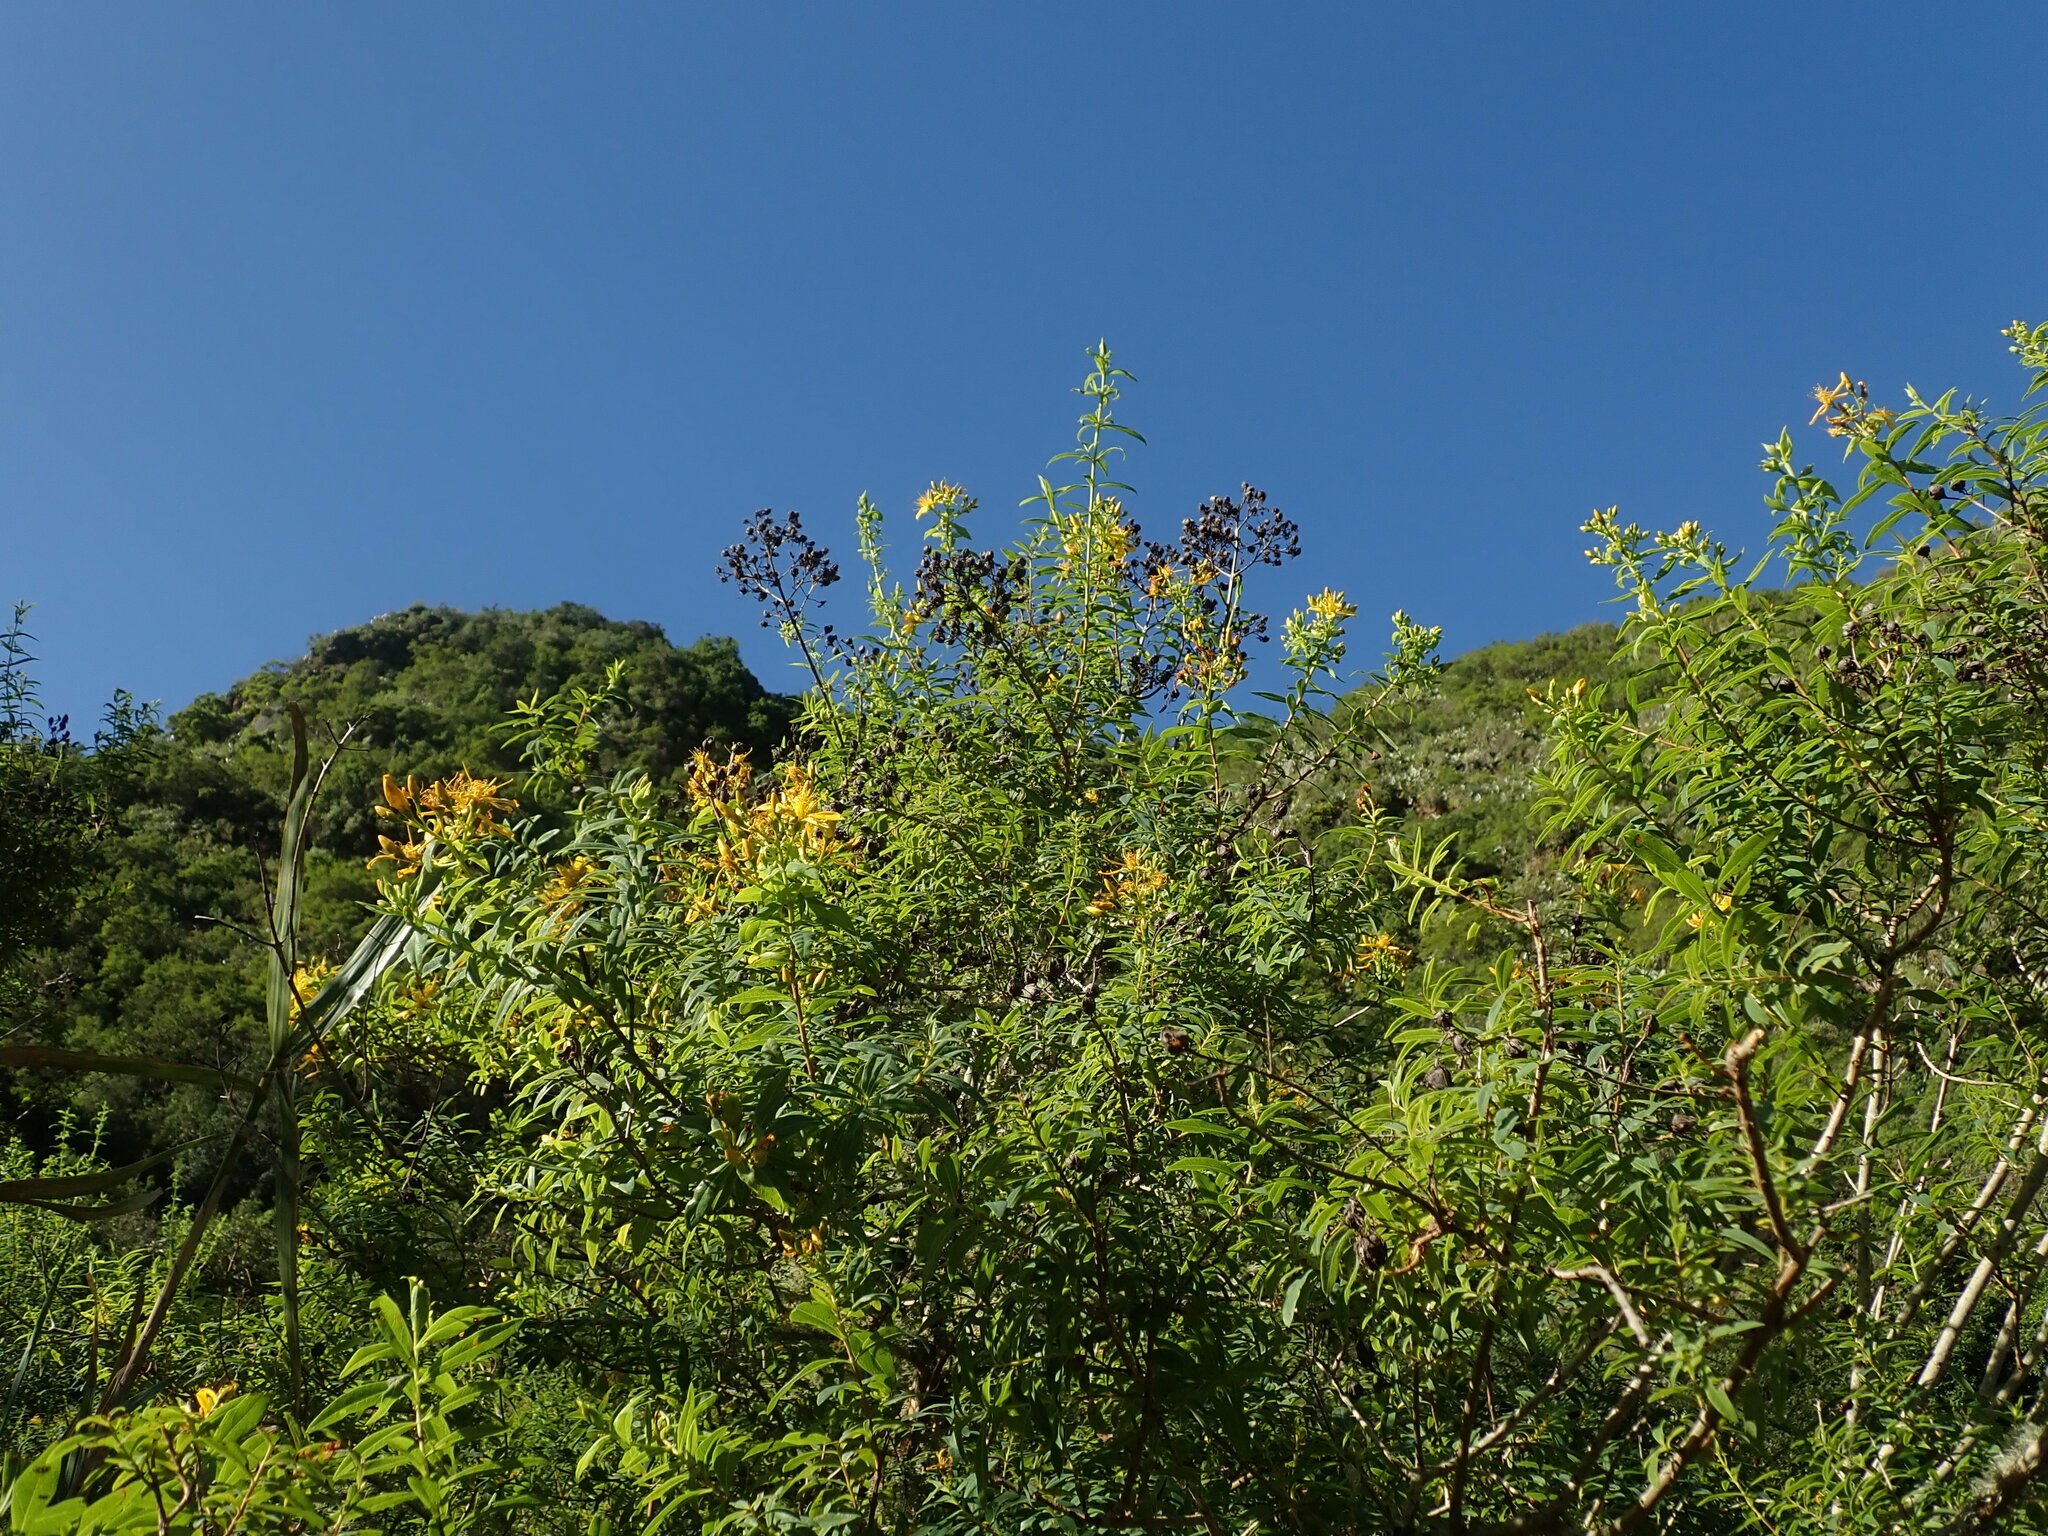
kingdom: Plantae
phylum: Tracheophyta
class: Magnoliopsida
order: Malpighiales
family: Hypericaceae
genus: Hypericum
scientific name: Hypericum canariense
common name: Canary island st. johnswort
